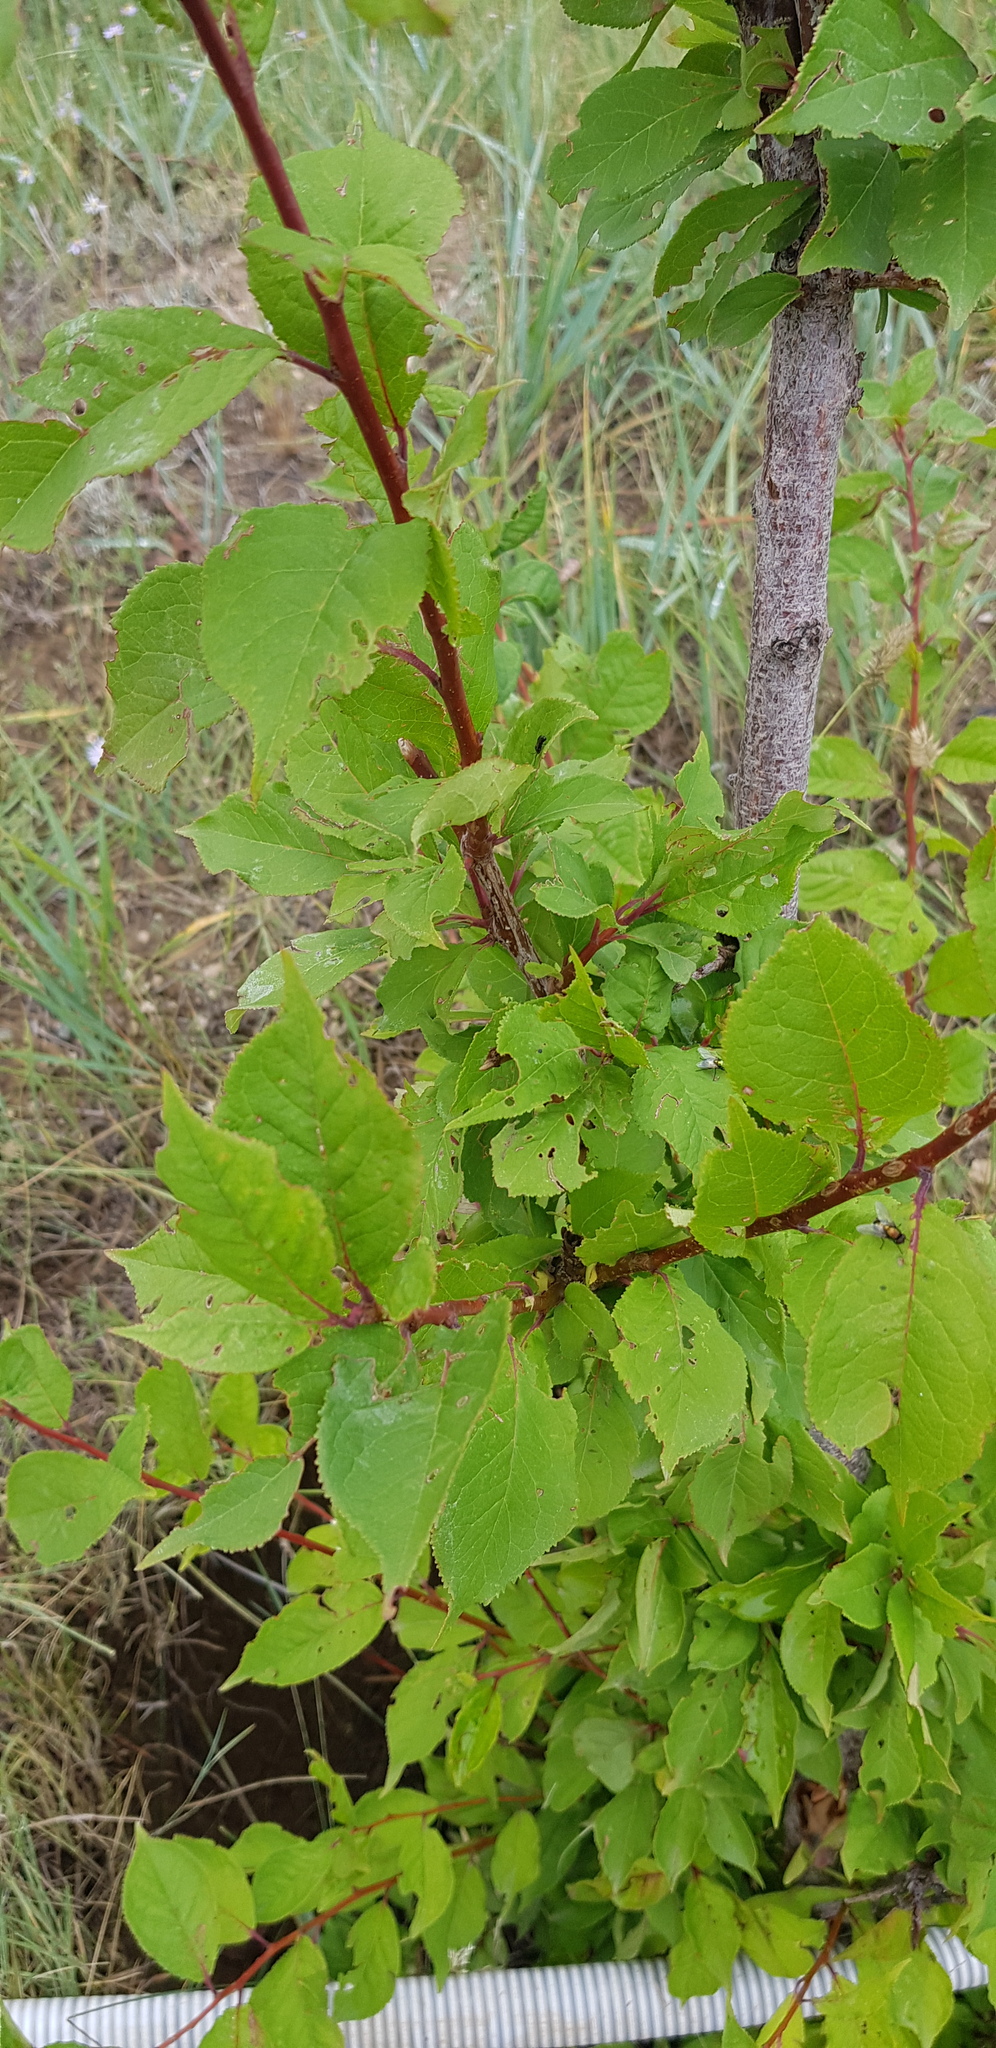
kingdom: Plantae
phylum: Tracheophyta
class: Magnoliopsida
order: Rosales
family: Rosaceae
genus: Prunus
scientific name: Prunus serotina
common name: Black cherry
